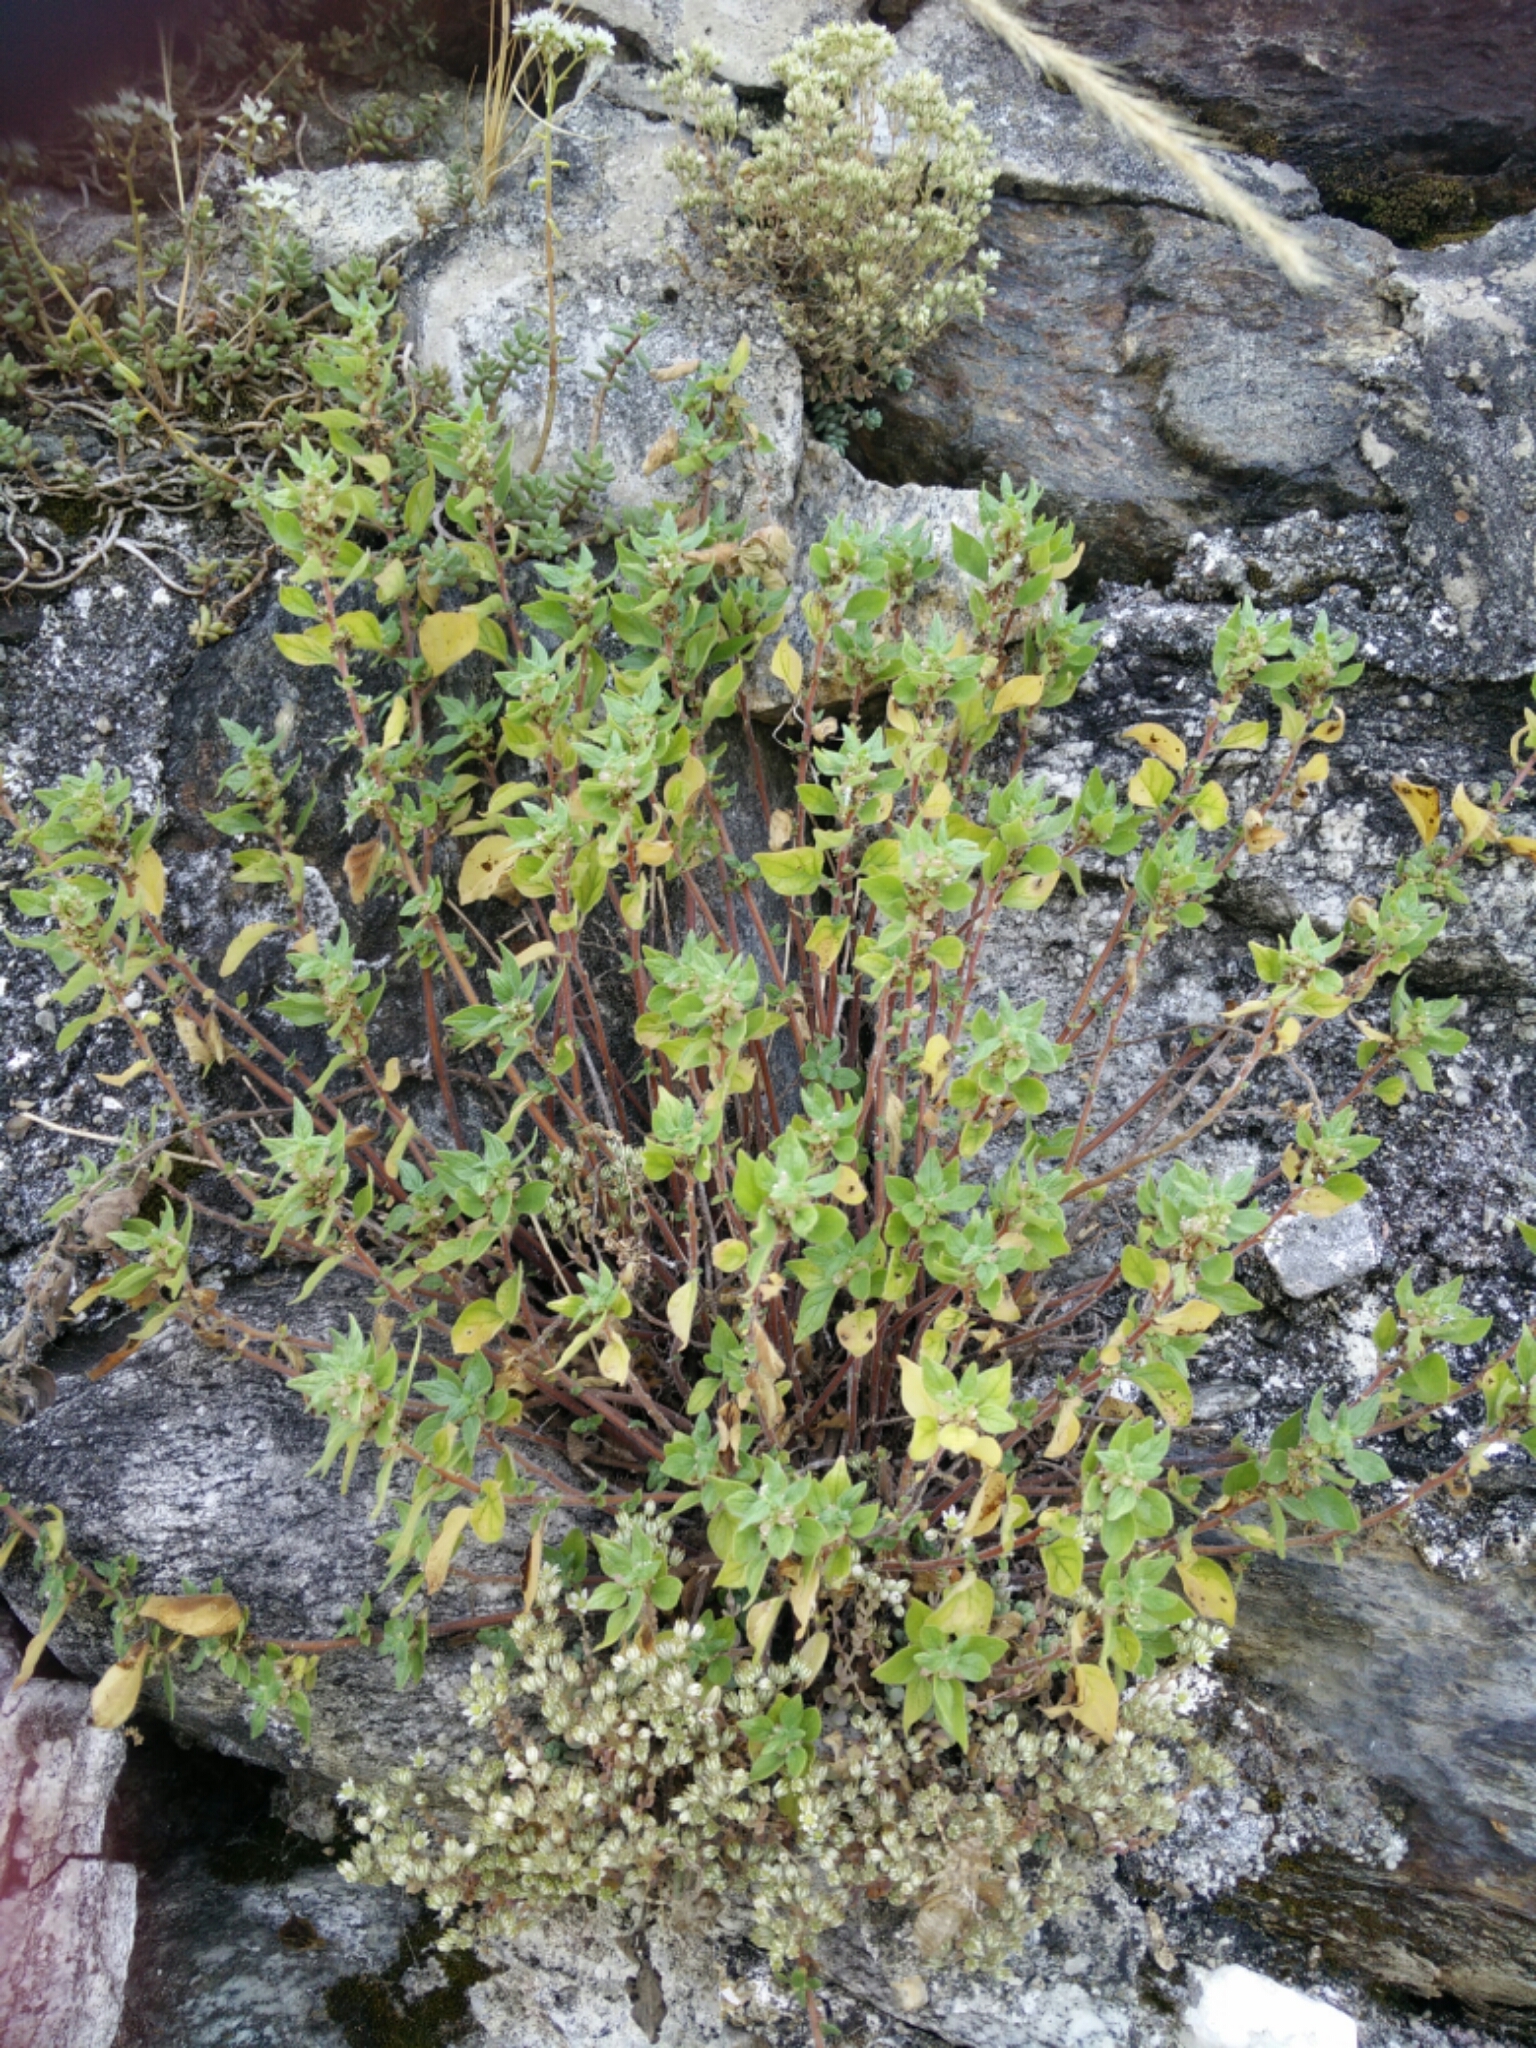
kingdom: Plantae
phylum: Tracheophyta
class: Magnoliopsida
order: Rosales
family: Urticaceae
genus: Parietaria
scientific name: Parietaria judaica
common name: Pellitory-of-the-wall
